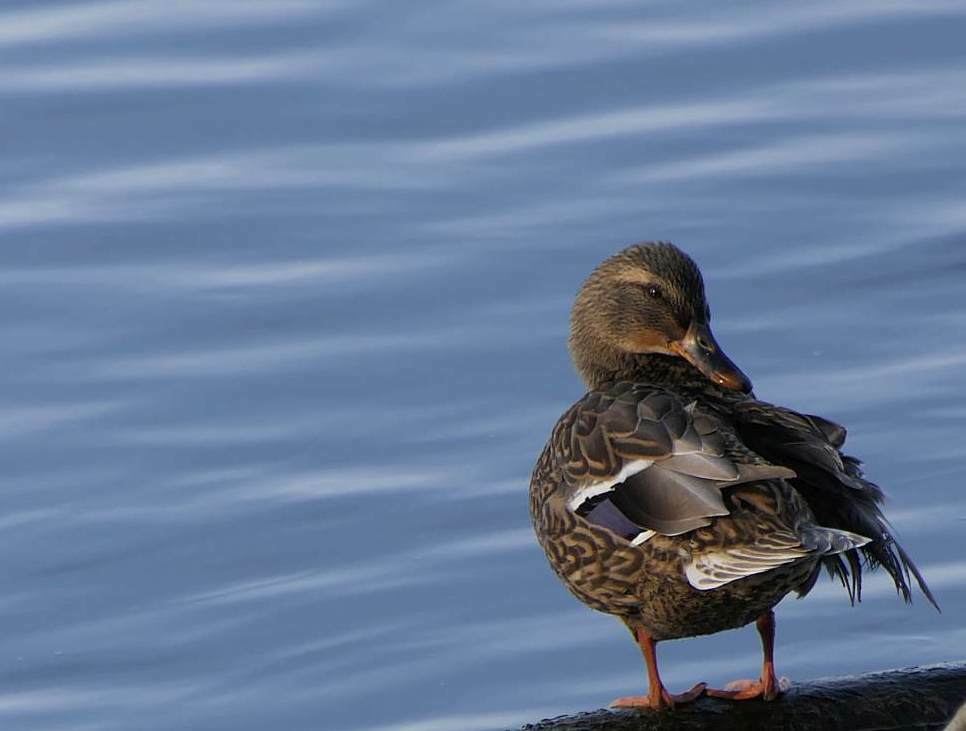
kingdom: Animalia
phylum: Chordata
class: Aves
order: Anseriformes
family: Anatidae
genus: Anas
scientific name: Anas platyrhynchos
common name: Mallard
